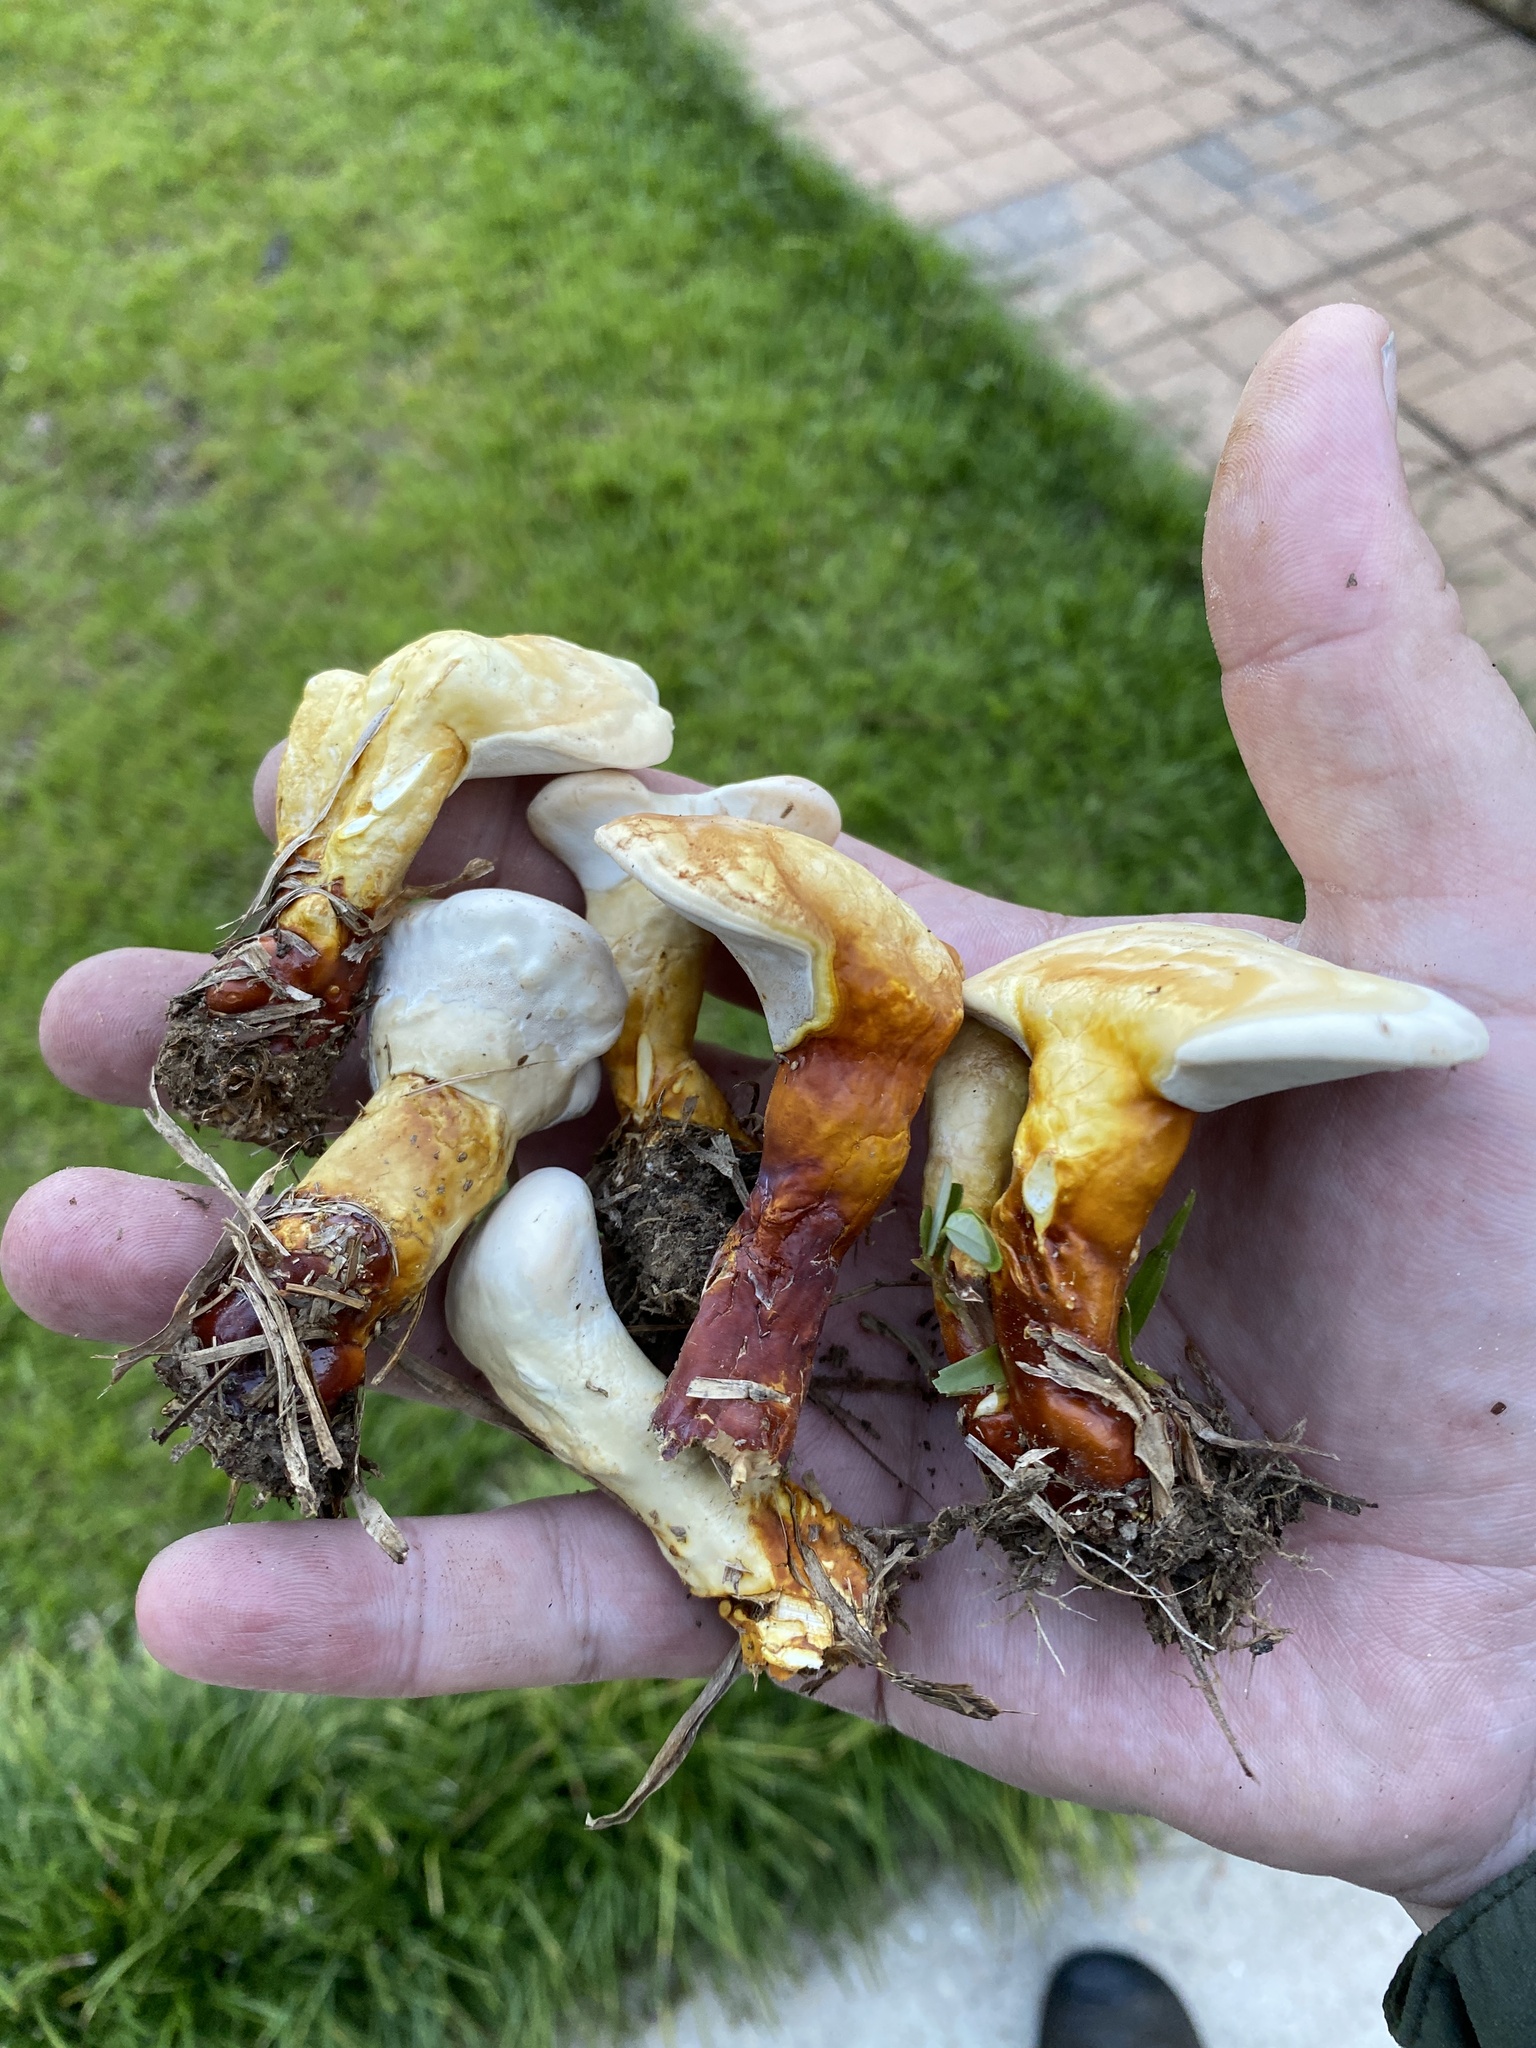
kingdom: Fungi
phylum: Basidiomycota
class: Agaricomycetes
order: Polyporales
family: Polyporaceae
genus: Ganoderma
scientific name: Ganoderma curtisii
